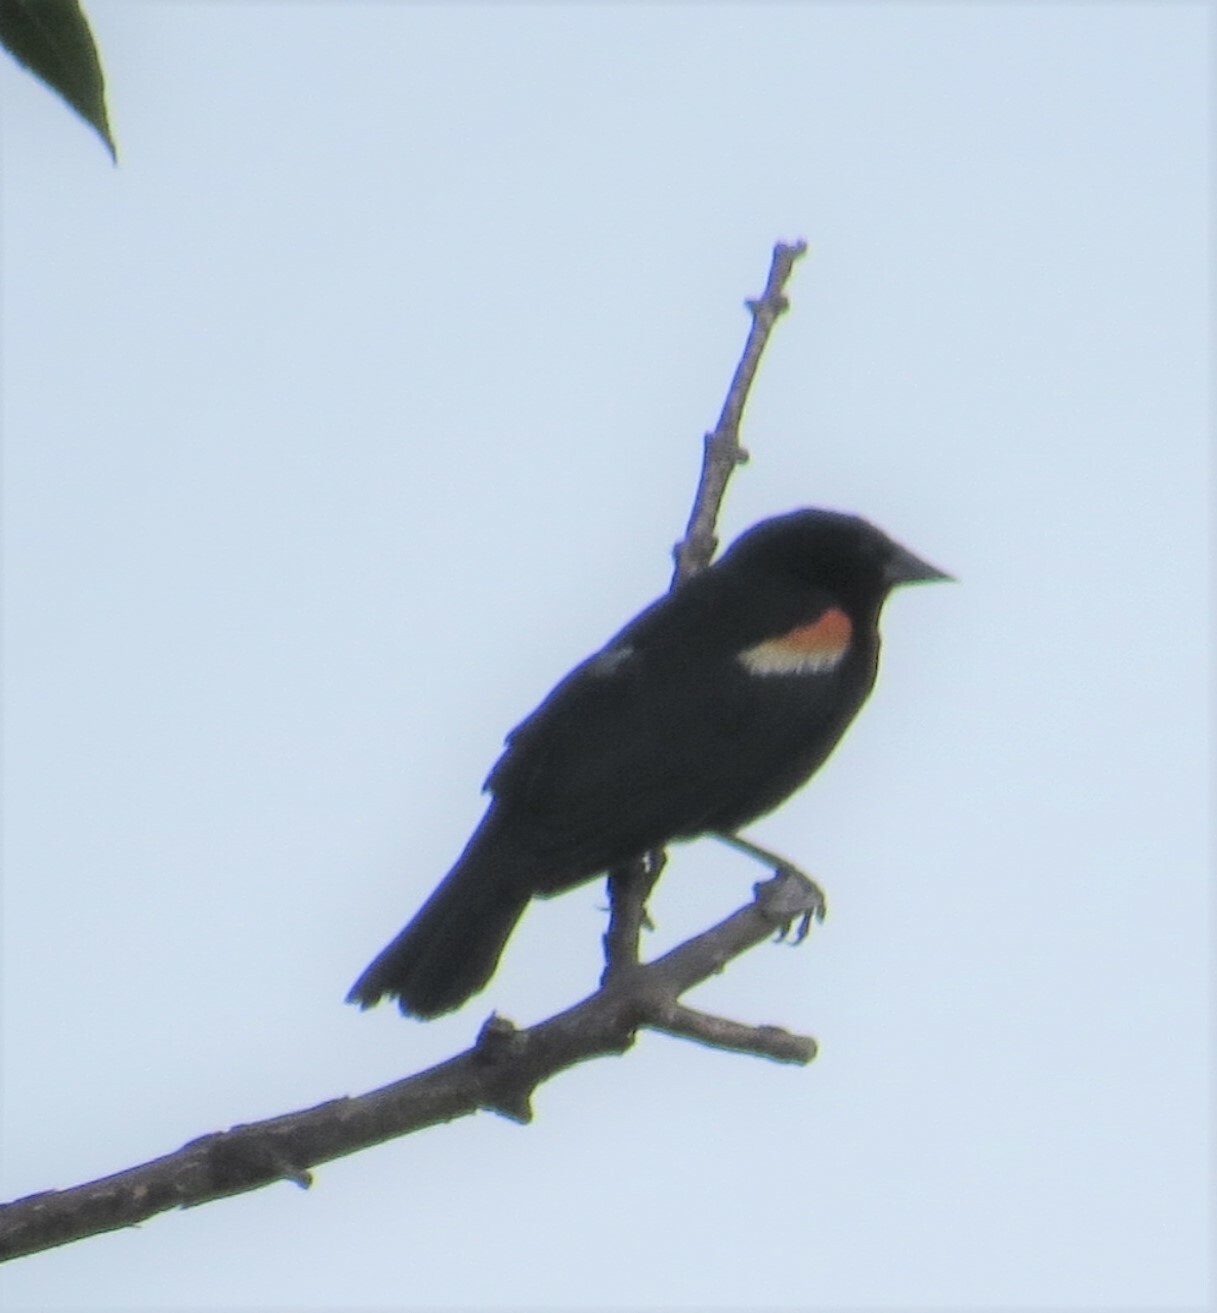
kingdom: Animalia
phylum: Chordata
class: Aves
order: Passeriformes
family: Icteridae
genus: Agelaius
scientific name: Agelaius phoeniceus
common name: Red-winged blackbird
